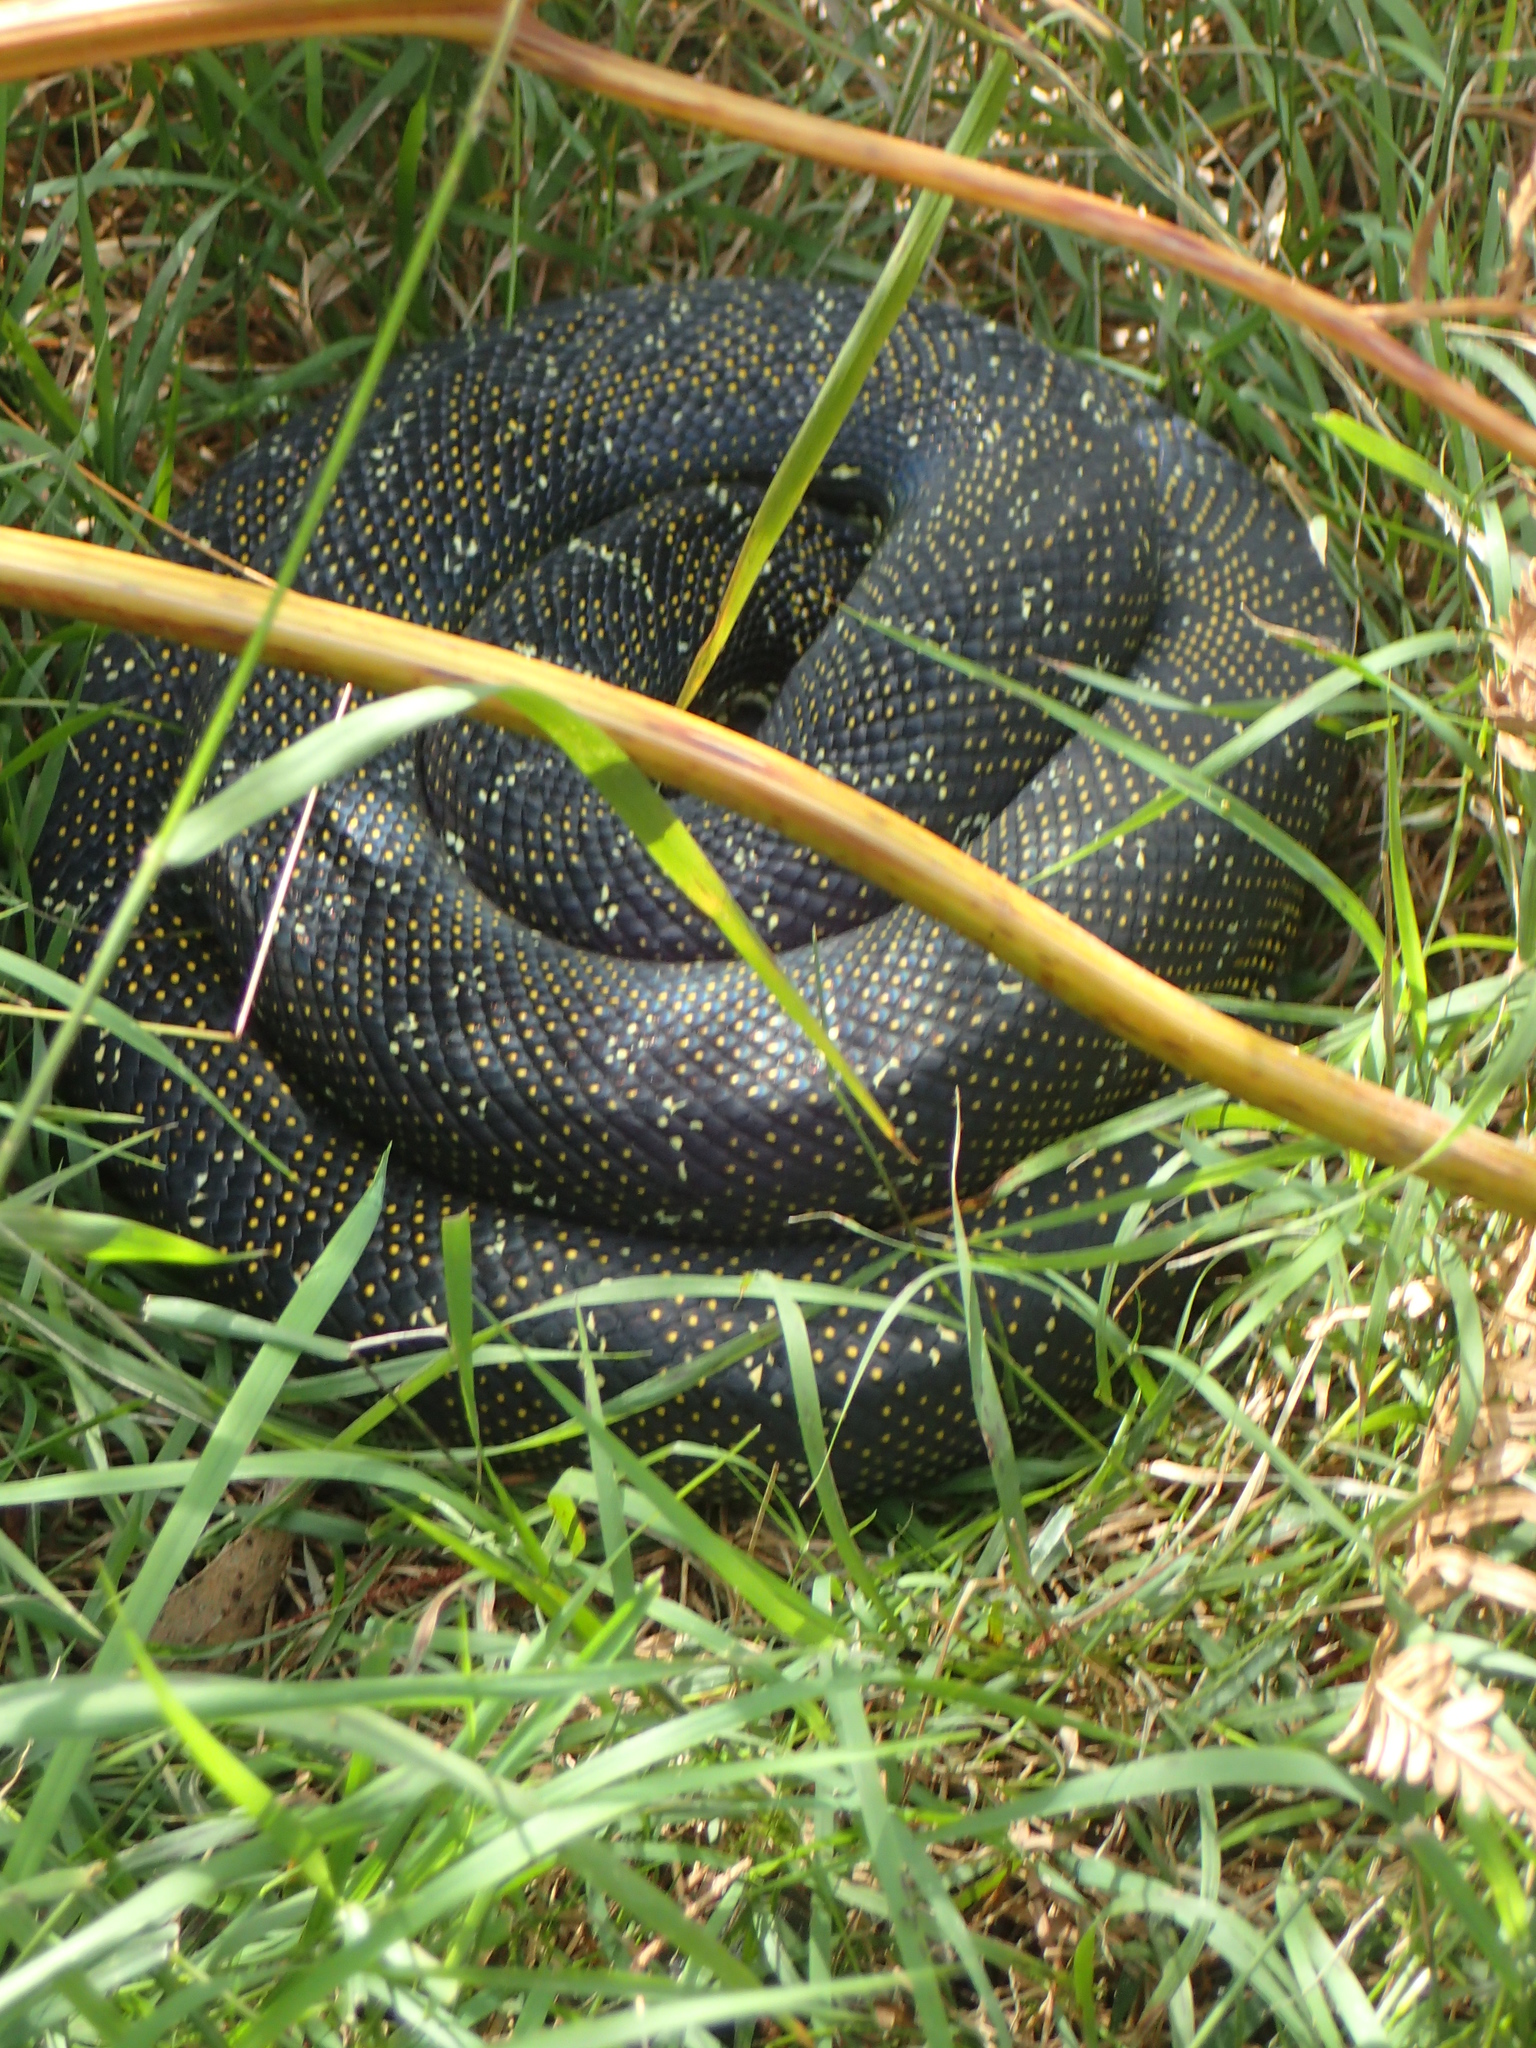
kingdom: Animalia
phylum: Chordata
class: Squamata
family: Pythonidae
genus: Morelia
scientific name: Morelia spilota
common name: Carpet python
